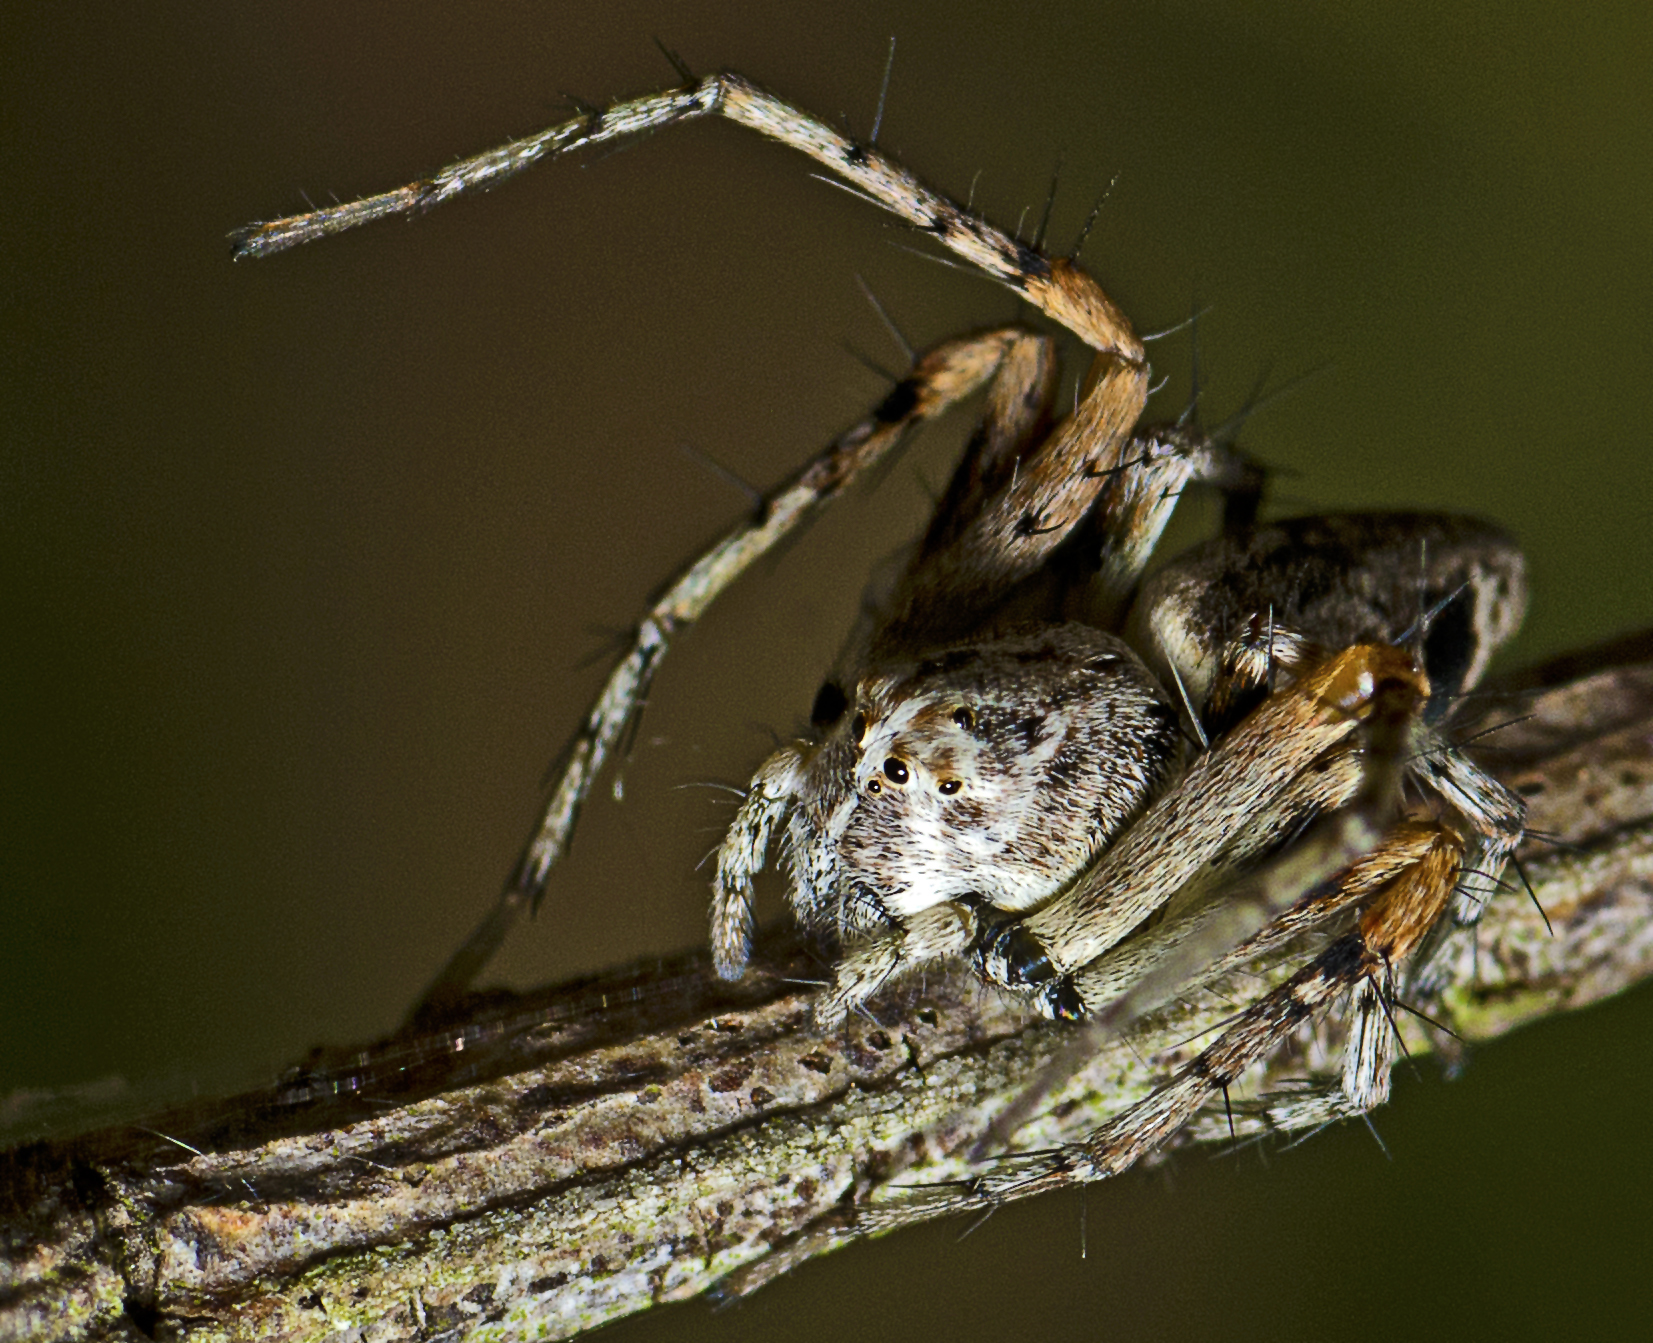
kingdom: Animalia
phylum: Arthropoda
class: Arachnida
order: Araneae
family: Oxyopidae
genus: Oxyopes
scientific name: Oxyopes variabilis
